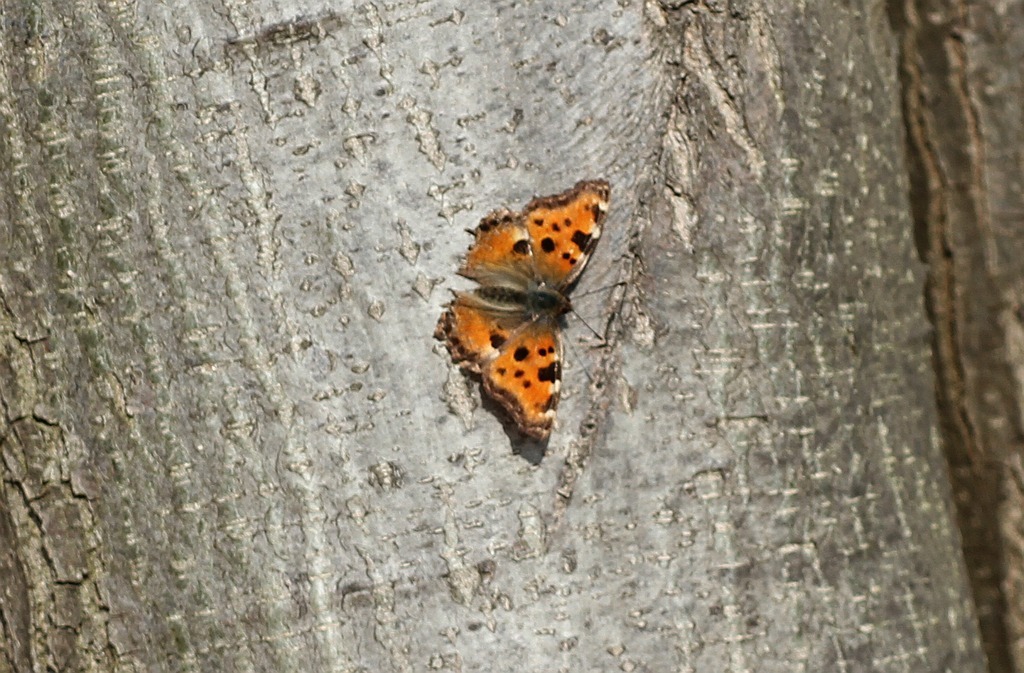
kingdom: Animalia
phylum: Arthropoda
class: Insecta
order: Lepidoptera
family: Nymphalidae
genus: Nymphalis
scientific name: Nymphalis polychloros
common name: Large tortoiseshell
